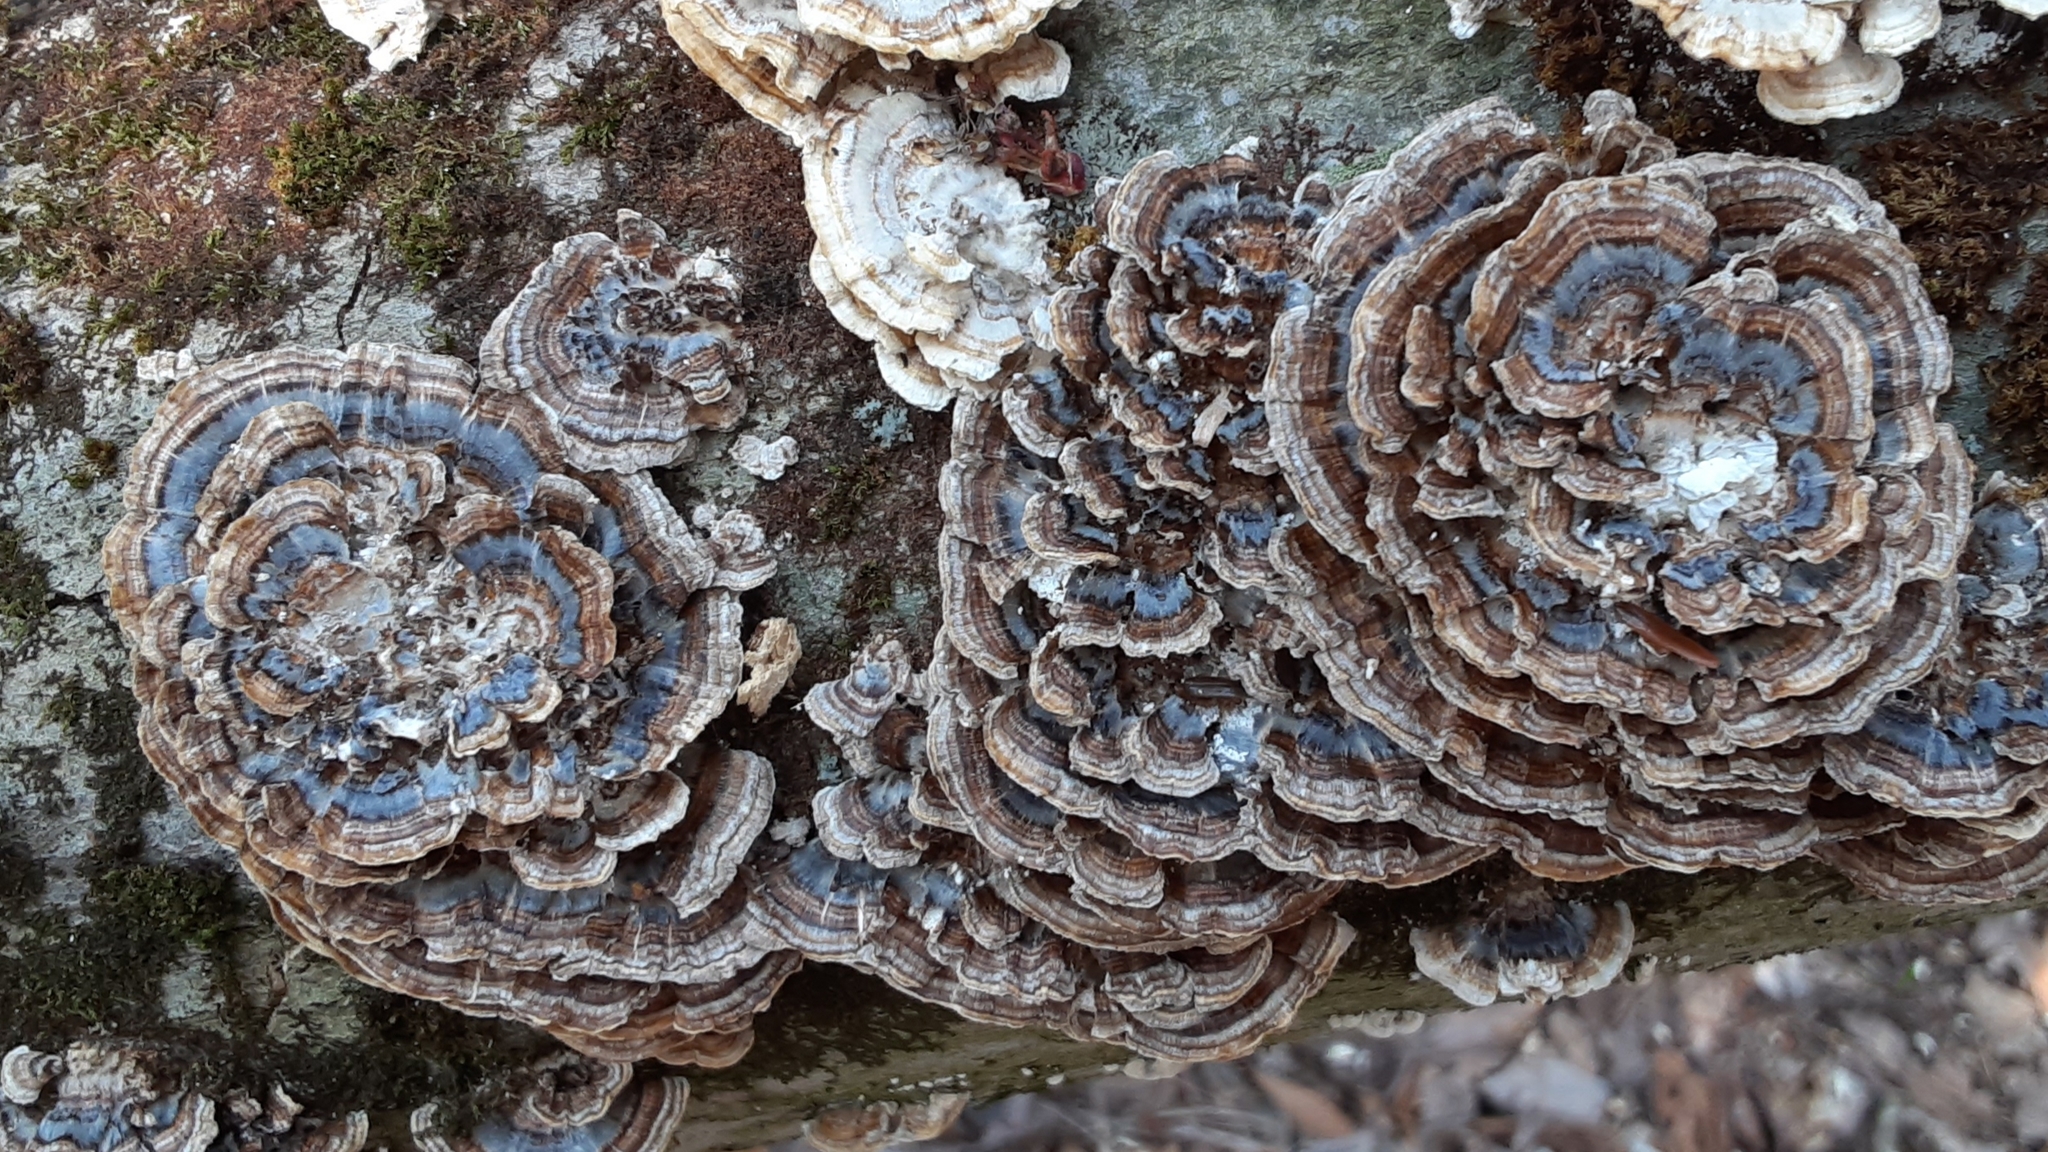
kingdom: Fungi
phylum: Basidiomycota
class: Agaricomycetes
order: Polyporales
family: Polyporaceae
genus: Trametes
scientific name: Trametes versicolor
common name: Turkeytail
